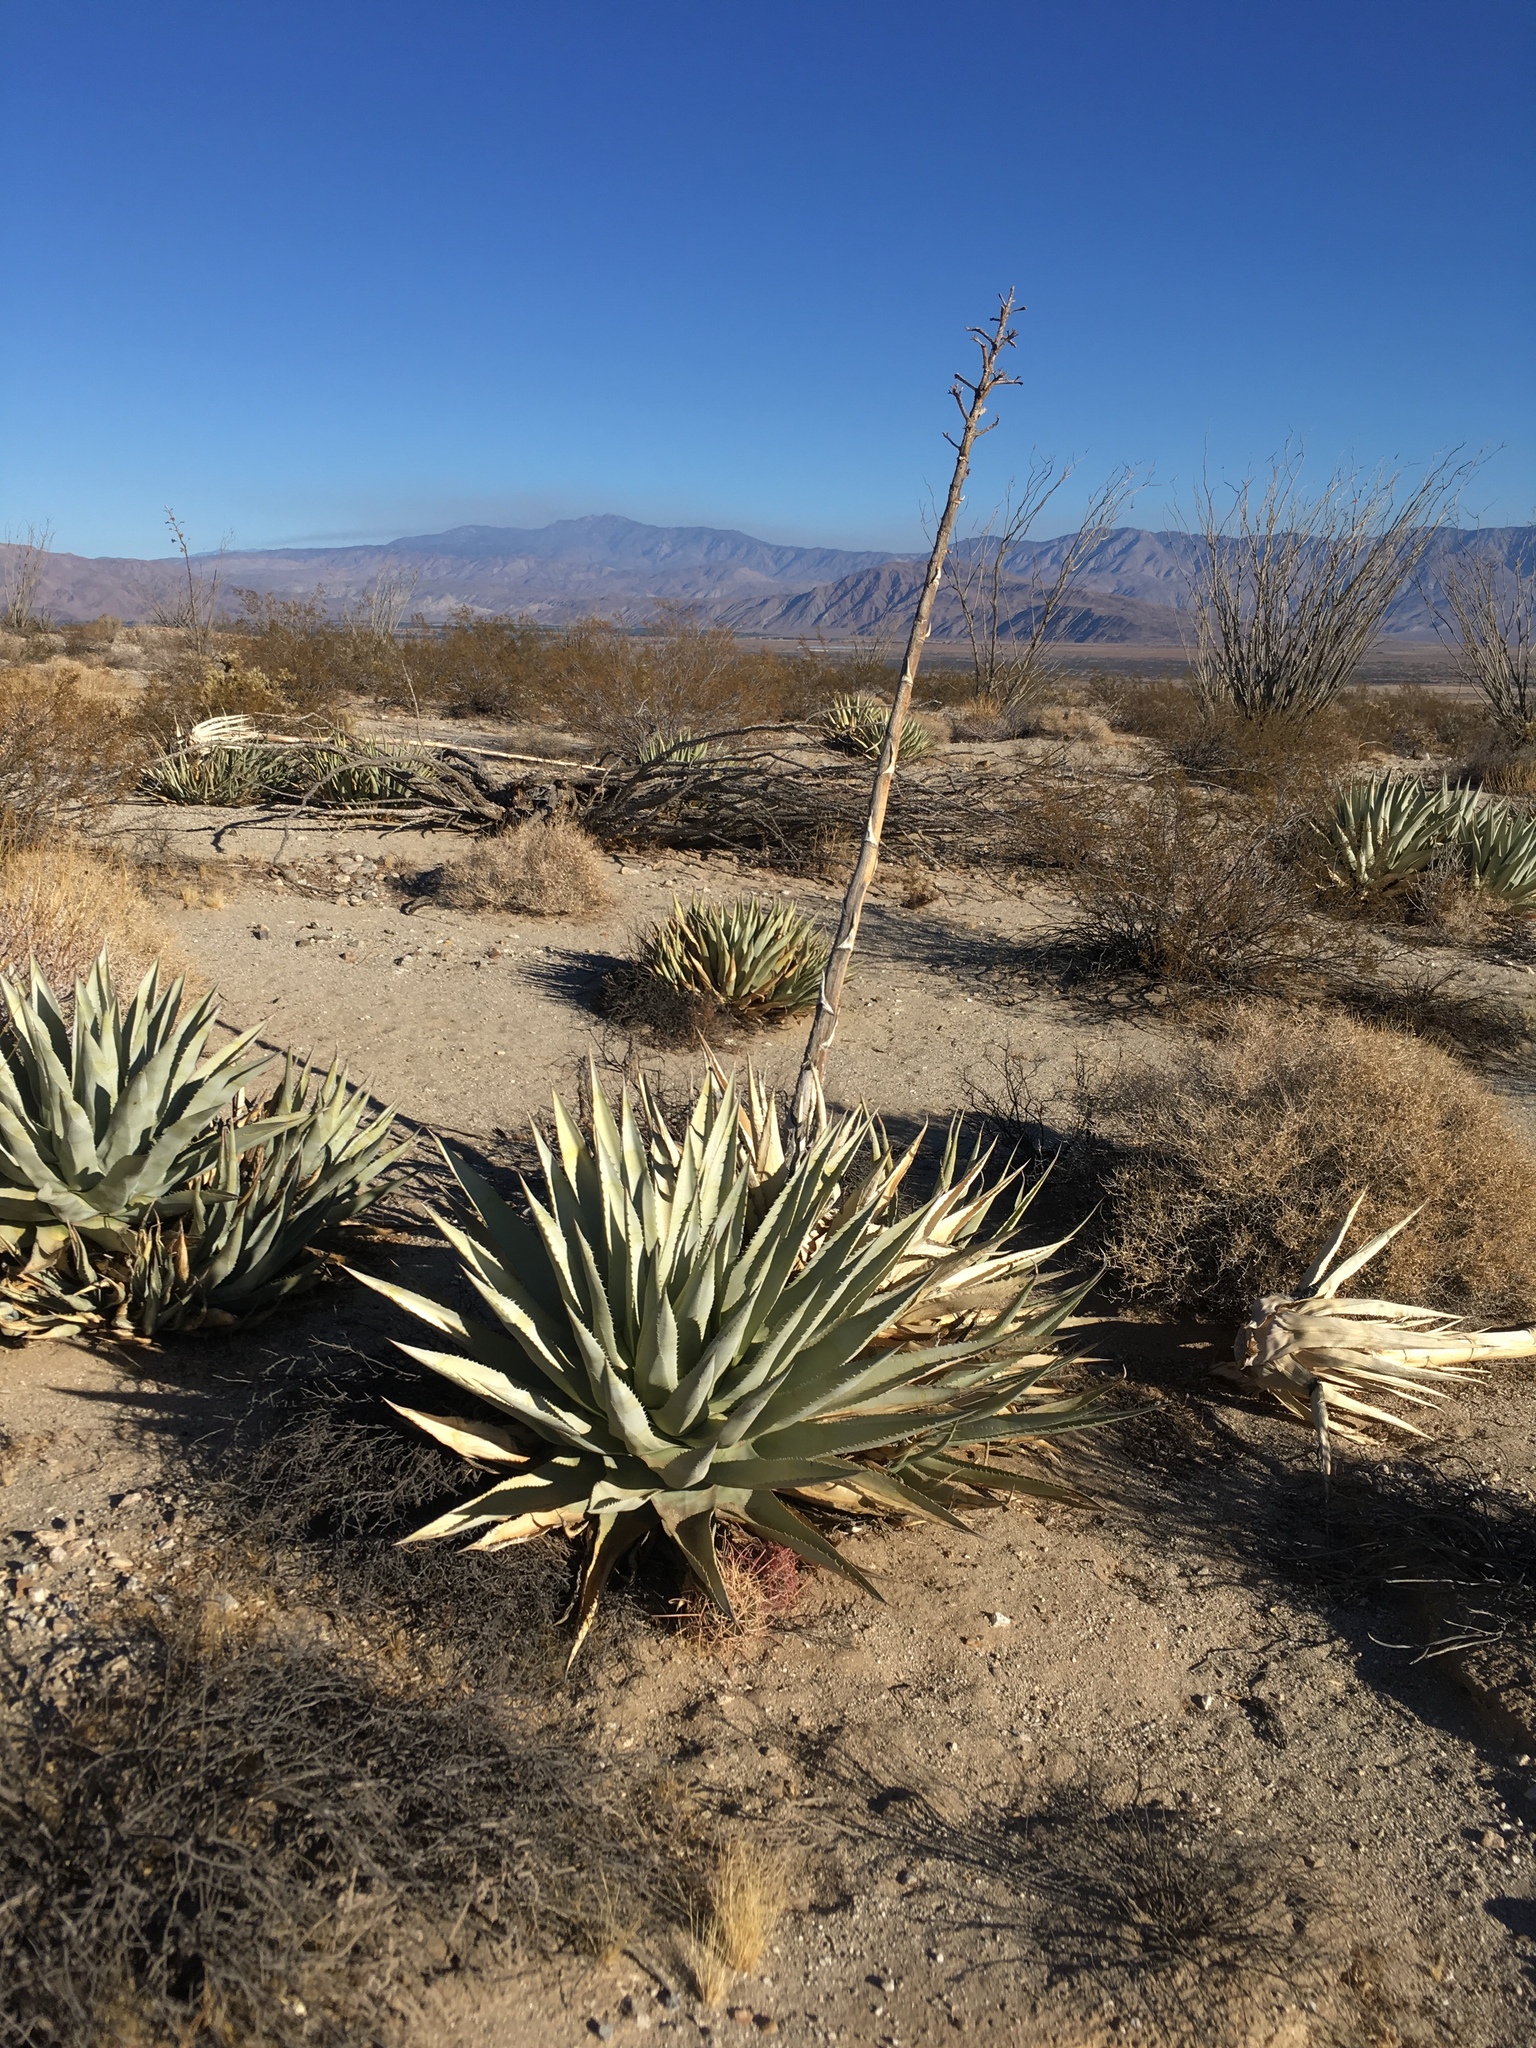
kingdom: Plantae
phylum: Tracheophyta
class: Liliopsida
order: Asparagales
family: Asparagaceae
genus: Agave
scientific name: Agave deserti
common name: Desert agave
